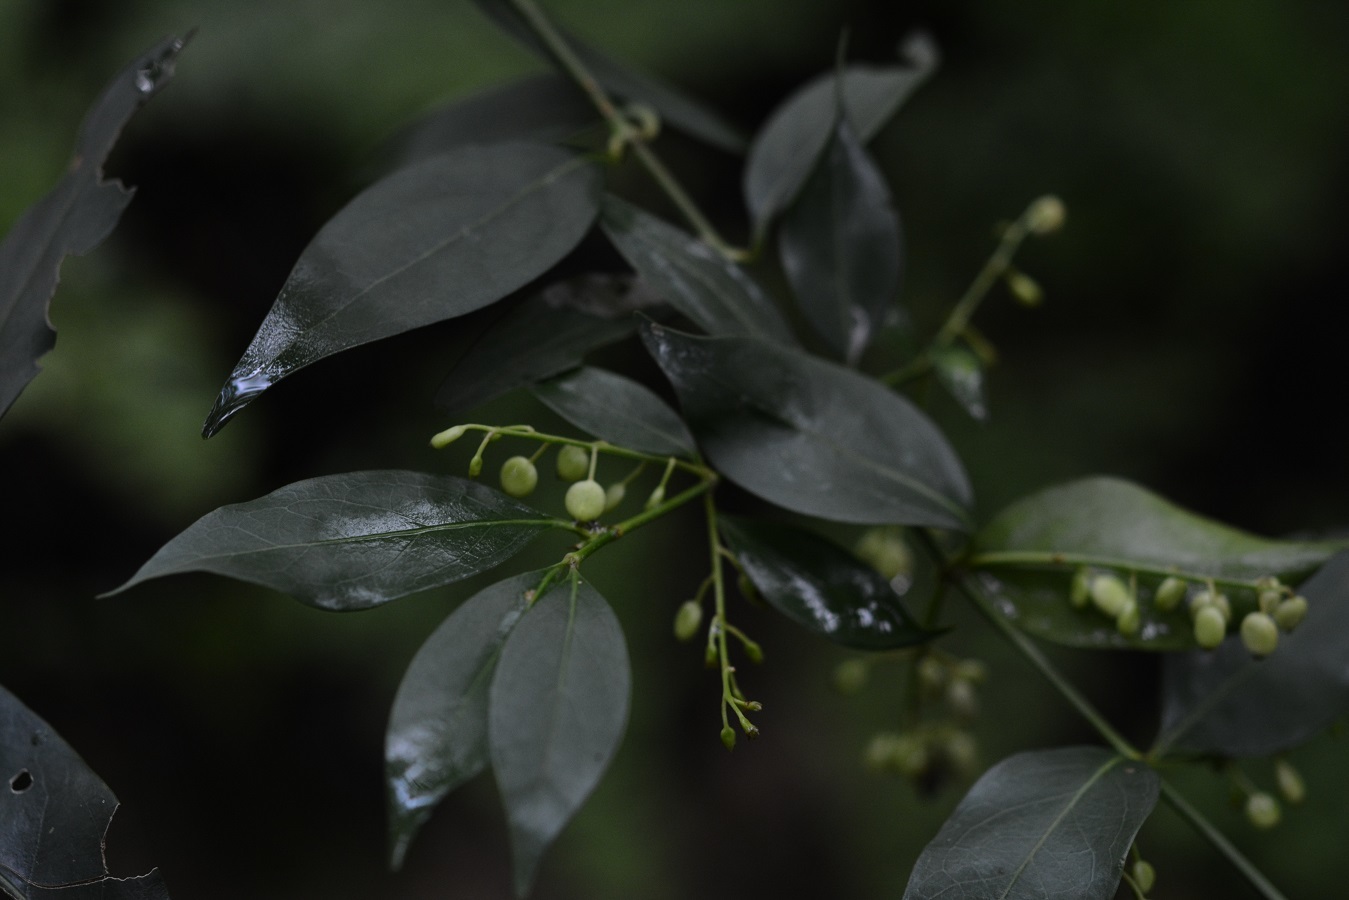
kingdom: Plantae
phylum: Tracheophyta
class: Magnoliopsida
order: Gentianales
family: Rubiaceae
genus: Chiococca
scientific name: Chiococca alba
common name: Snowberry
